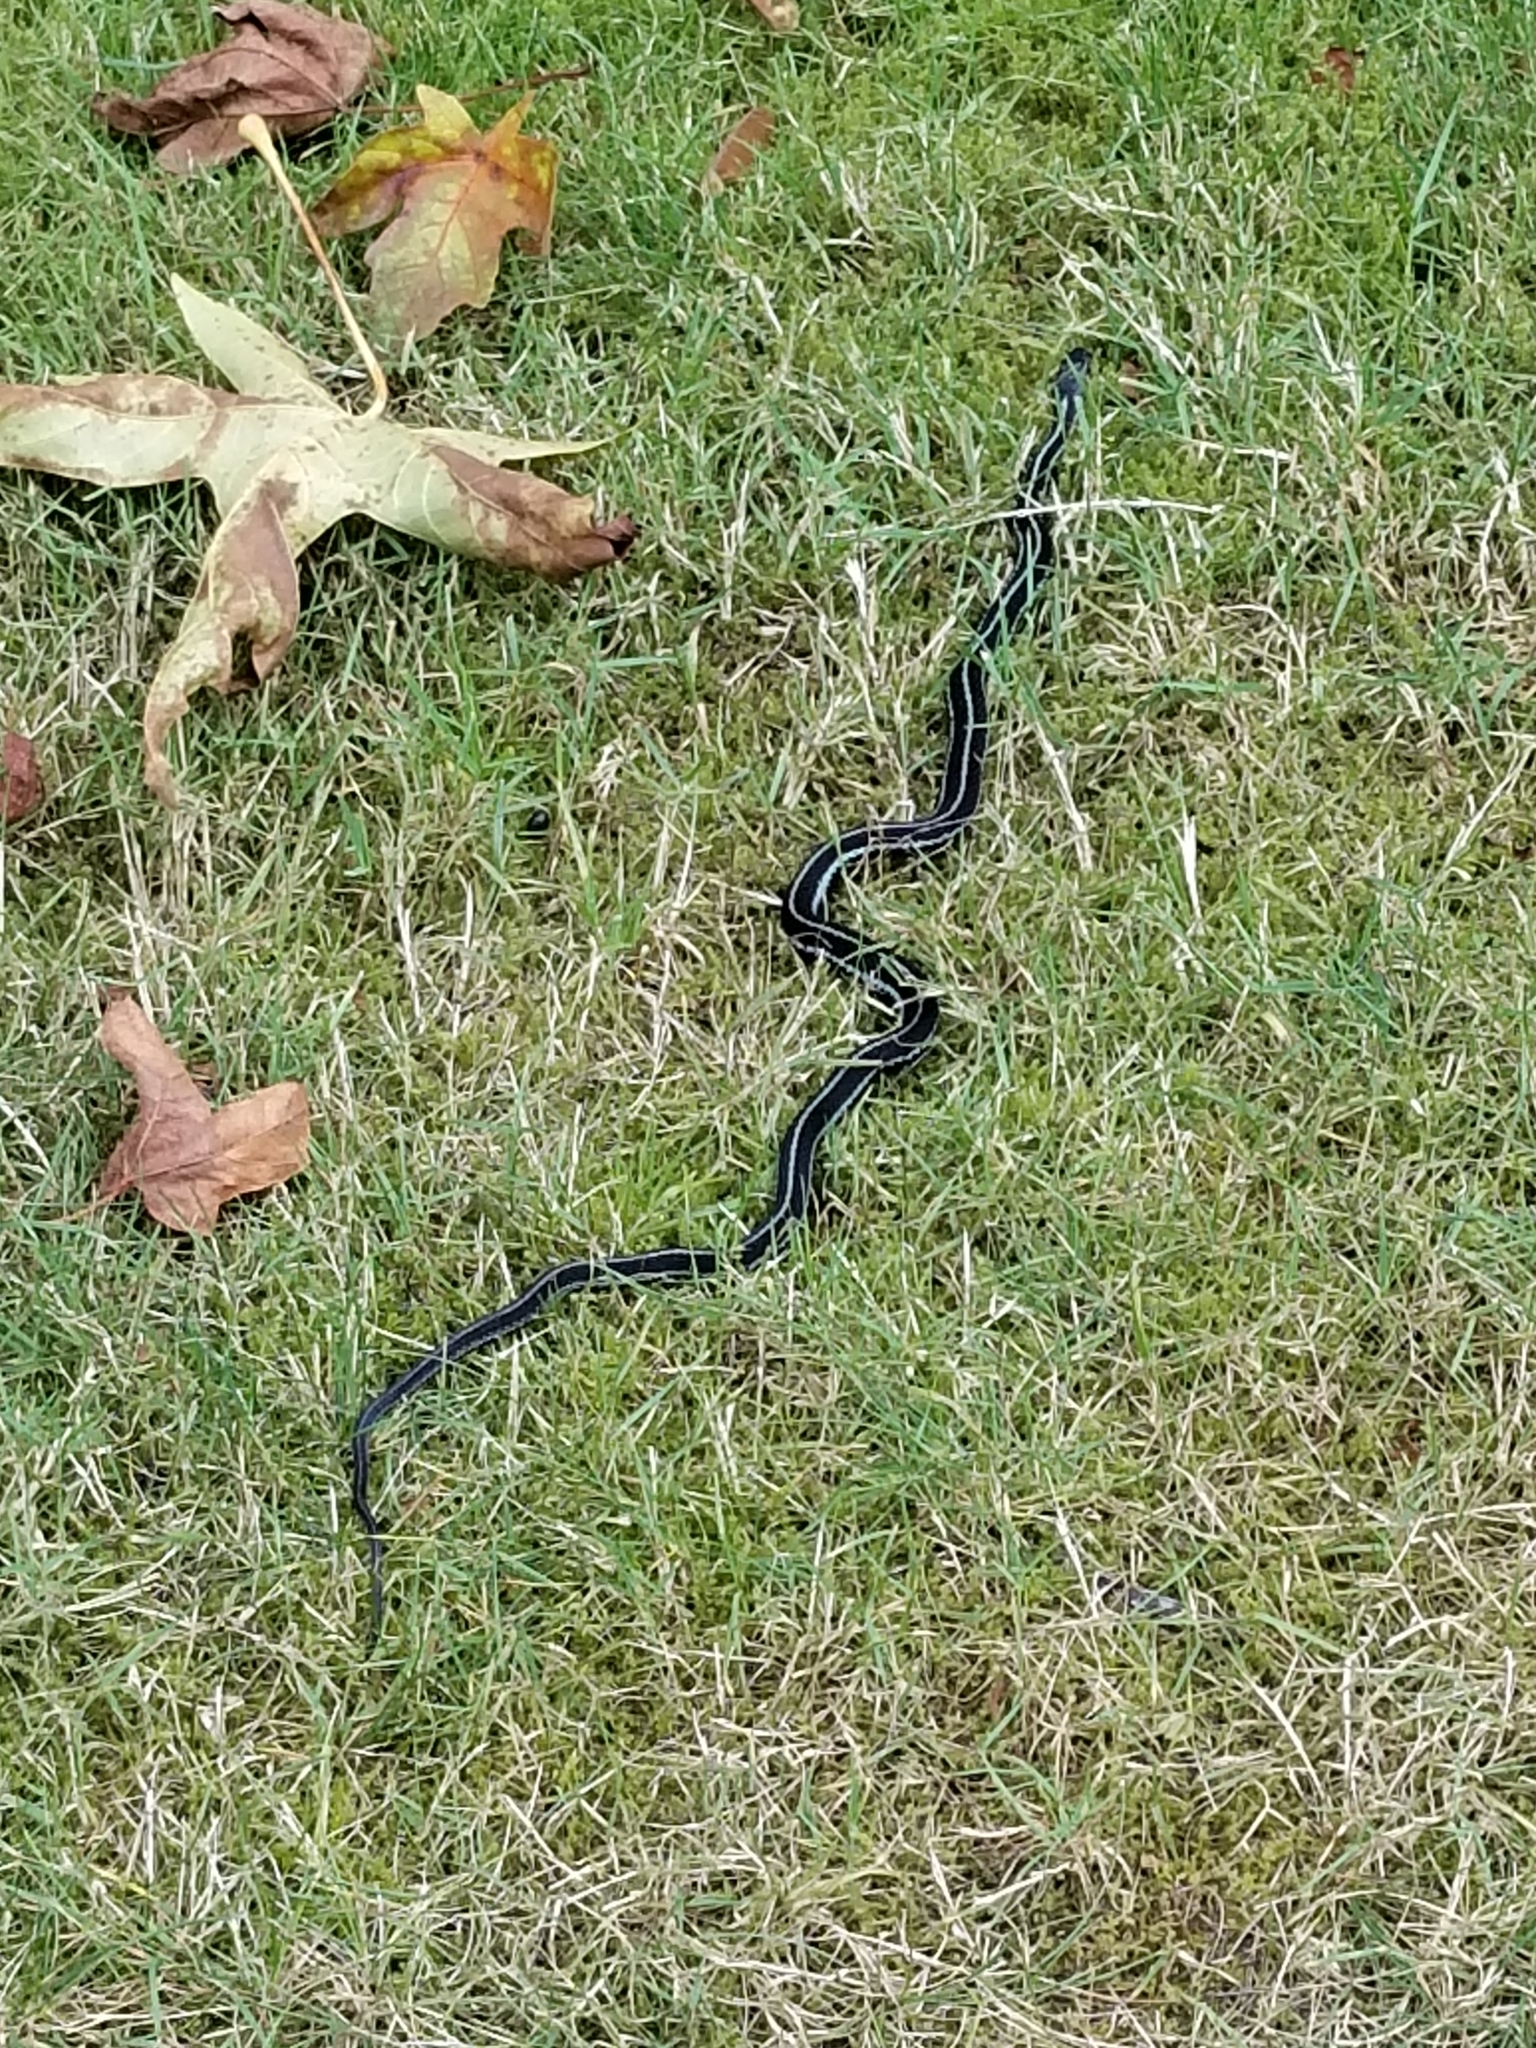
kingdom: Animalia
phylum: Chordata
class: Squamata
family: Colubridae
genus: Thamnophis
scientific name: Thamnophis sirtalis
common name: Common garter snake
